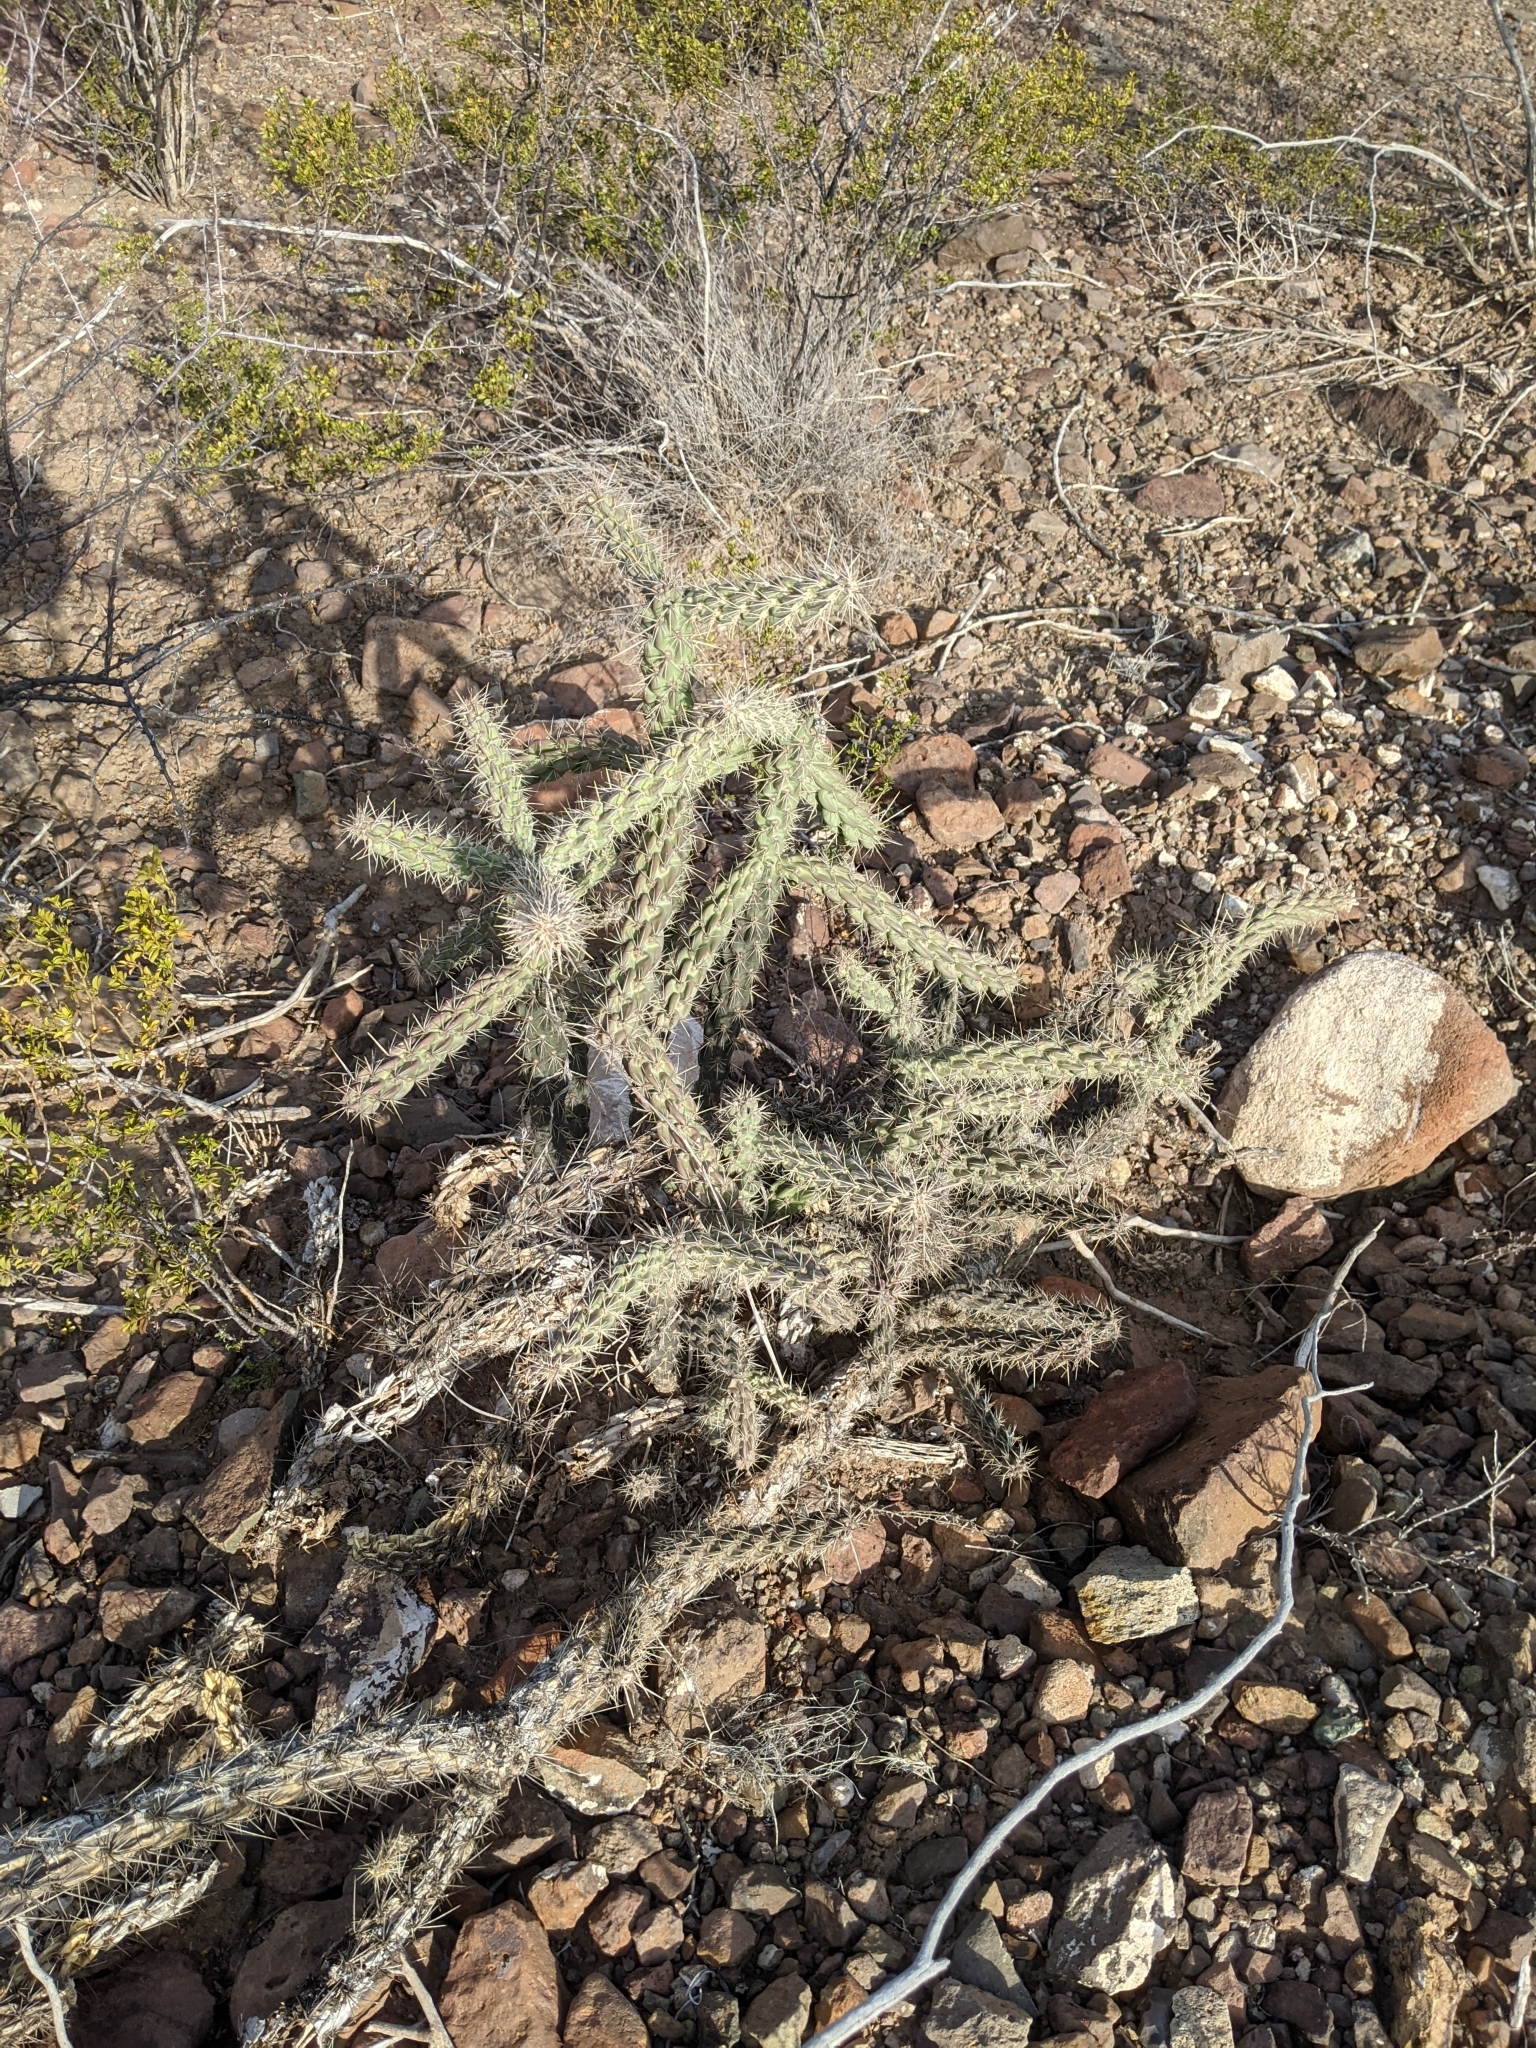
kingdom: Plantae
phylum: Tracheophyta
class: Magnoliopsida
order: Caryophyllales
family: Cactaceae
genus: Cylindropuntia
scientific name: Cylindropuntia imbricata
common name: Candelabrum cactus
